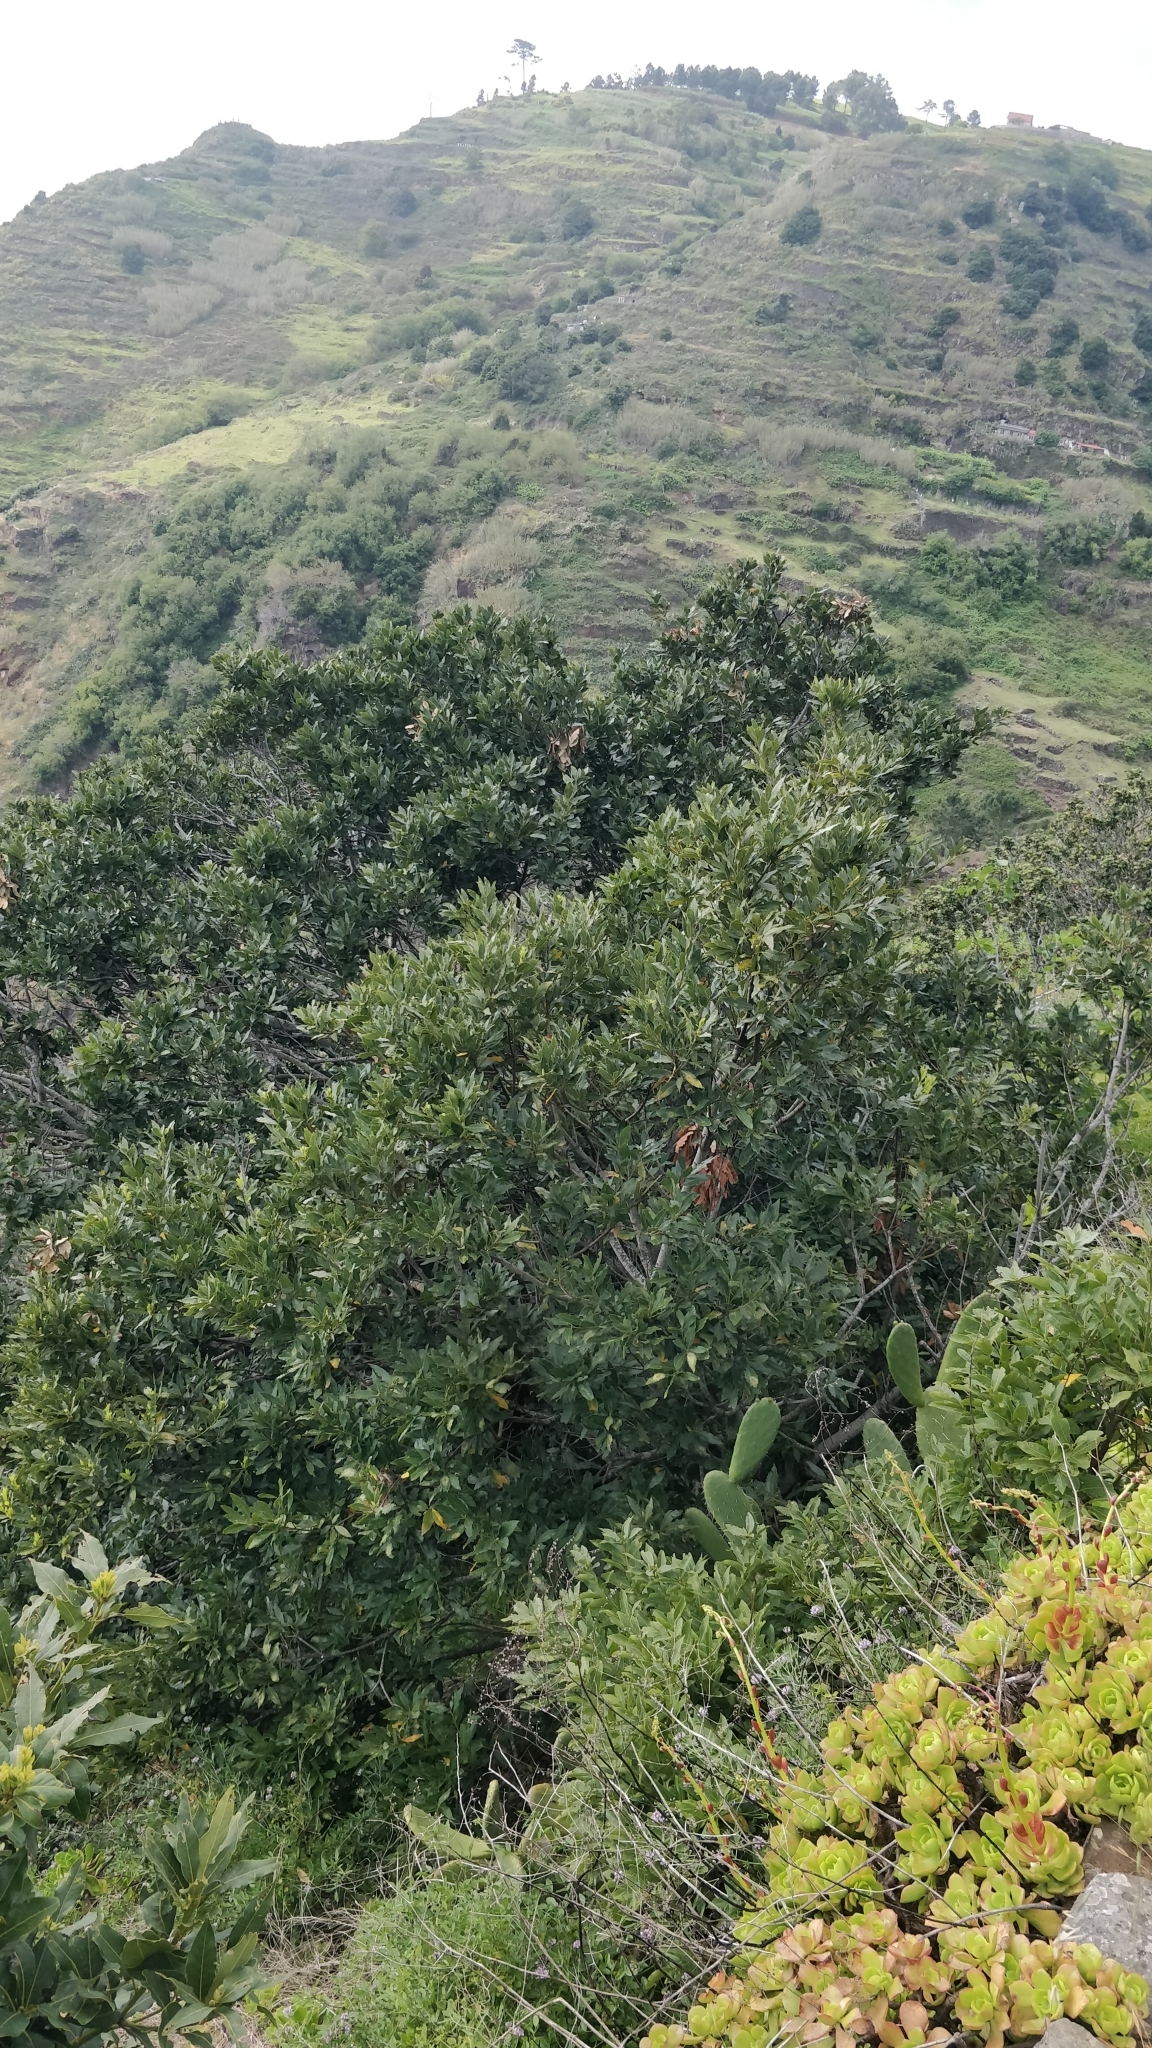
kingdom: Plantae
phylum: Tracheophyta
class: Magnoliopsida
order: Laurales
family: Lauraceae
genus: Laurus
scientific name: Laurus novocanariensis
